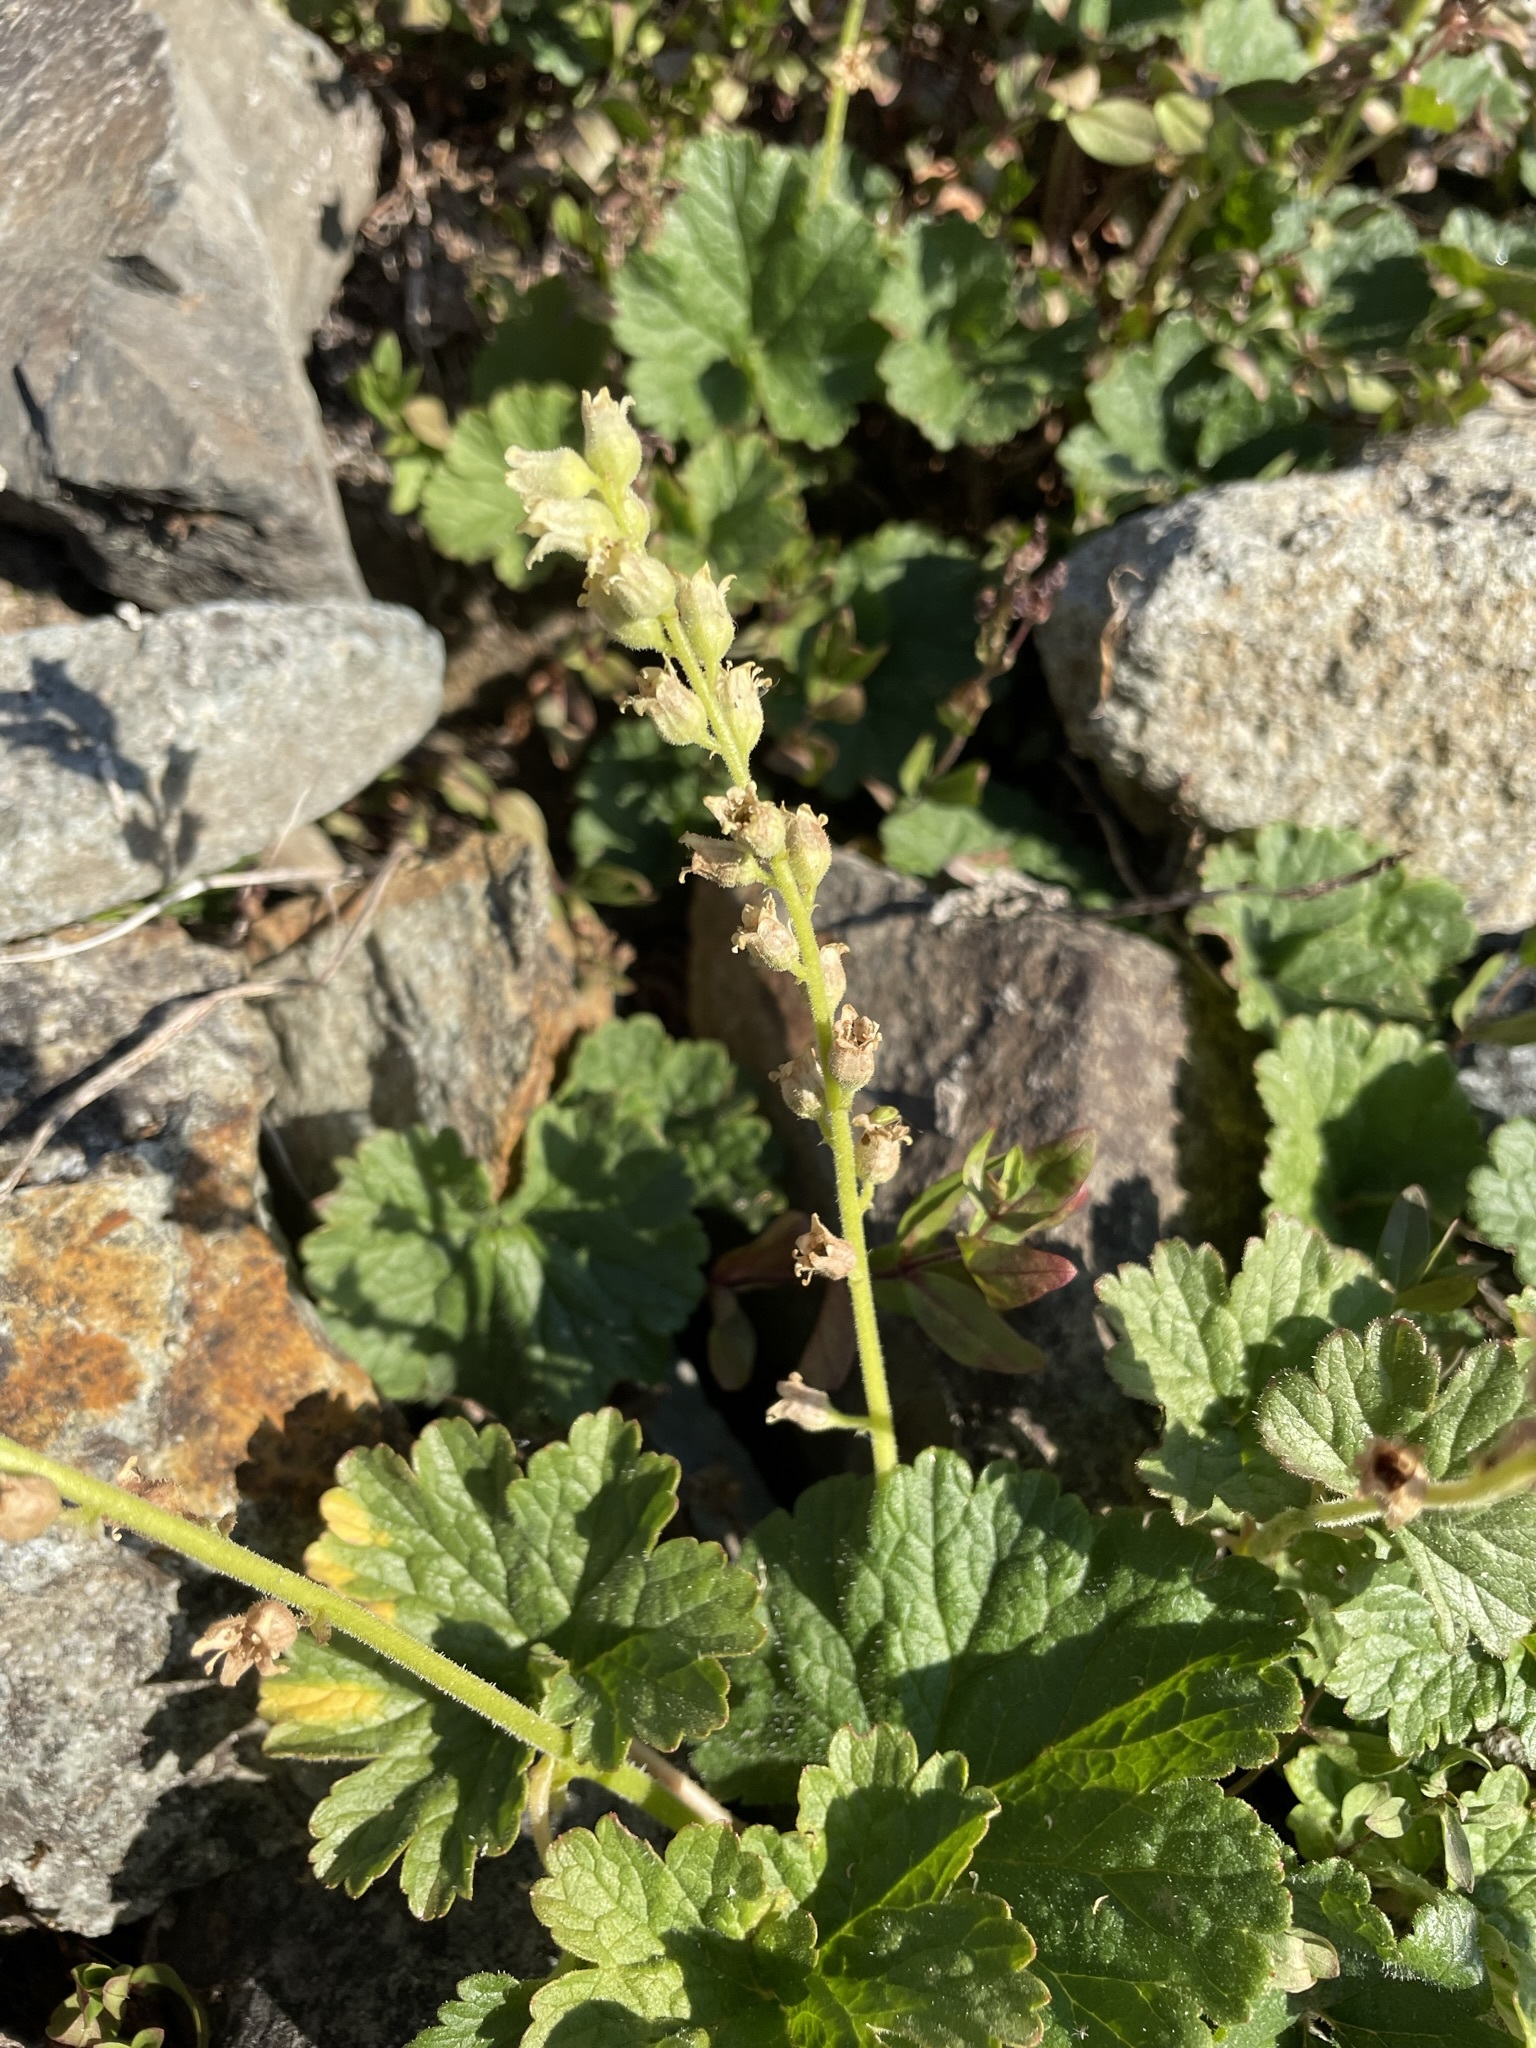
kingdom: Plantae
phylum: Tracheophyta
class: Magnoliopsida
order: Saxifragales
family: Saxifragaceae
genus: Elmera
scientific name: Elmera racemosa
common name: Elmera
